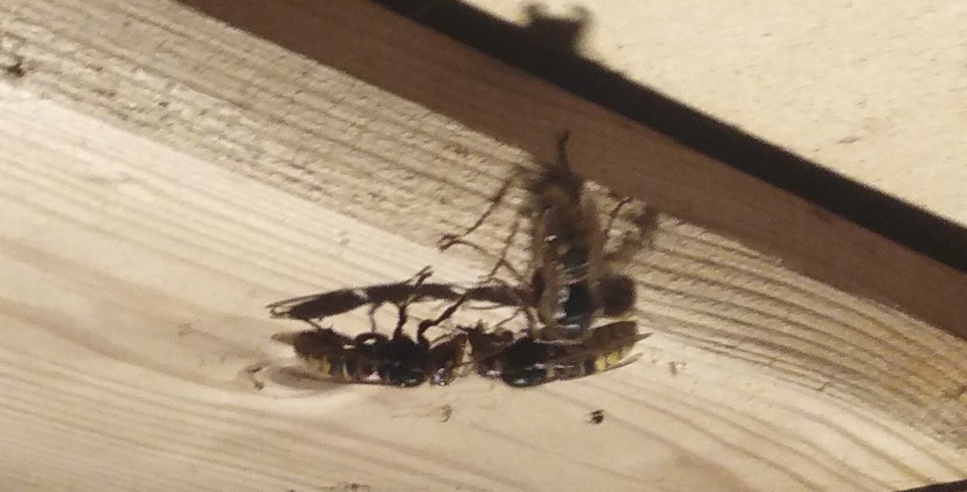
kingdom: Animalia
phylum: Arthropoda
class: Insecta
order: Hymenoptera
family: Vespidae
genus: Vespa
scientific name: Vespa crabro
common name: Hornet
